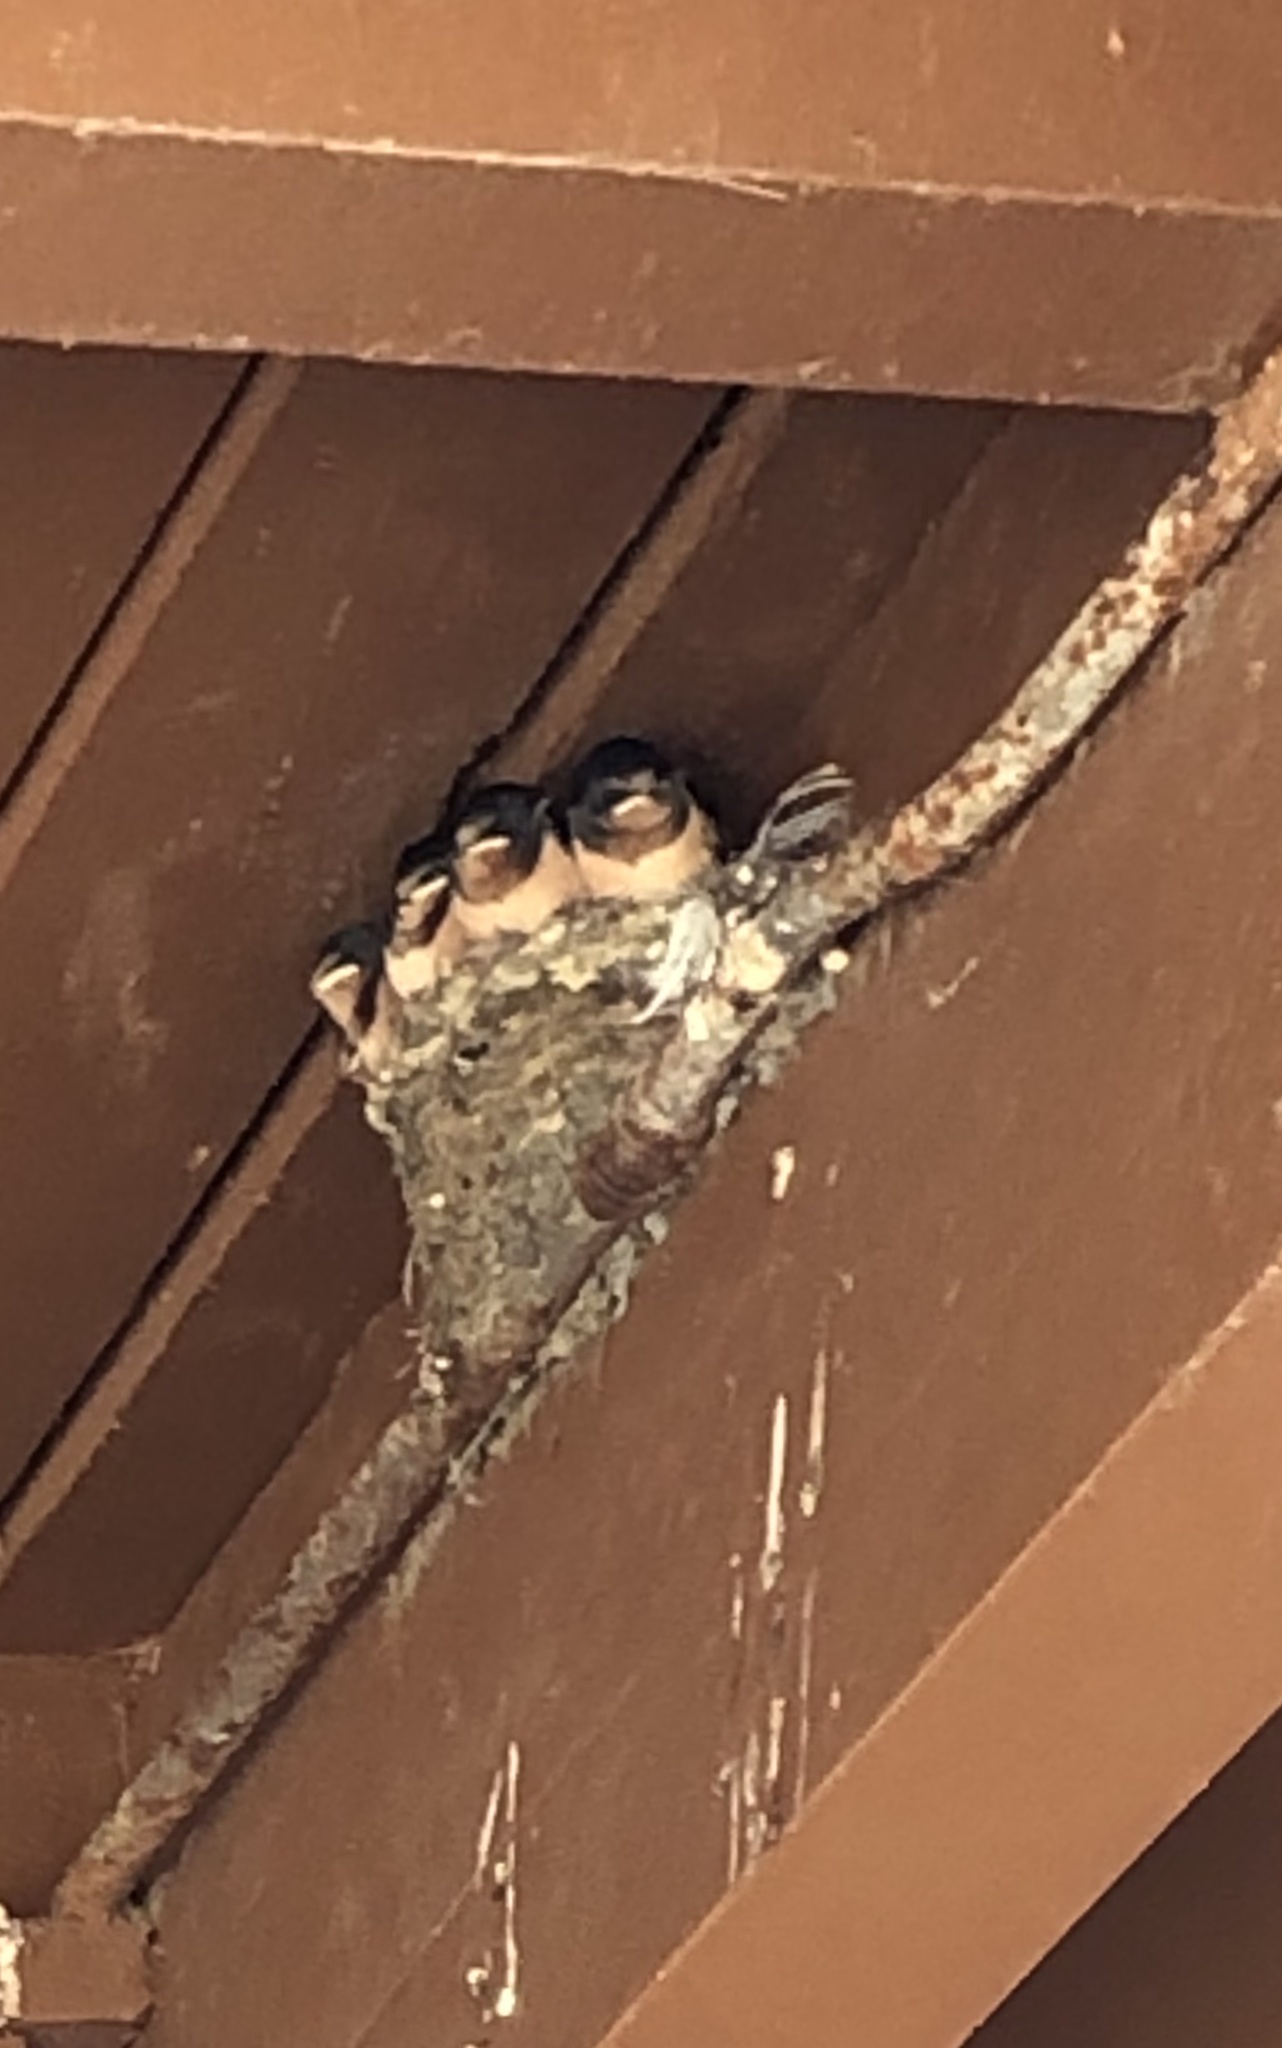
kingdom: Animalia
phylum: Chordata
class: Aves
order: Passeriformes
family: Hirundinidae
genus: Hirundo
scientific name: Hirundo rustica
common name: Barn swallow
